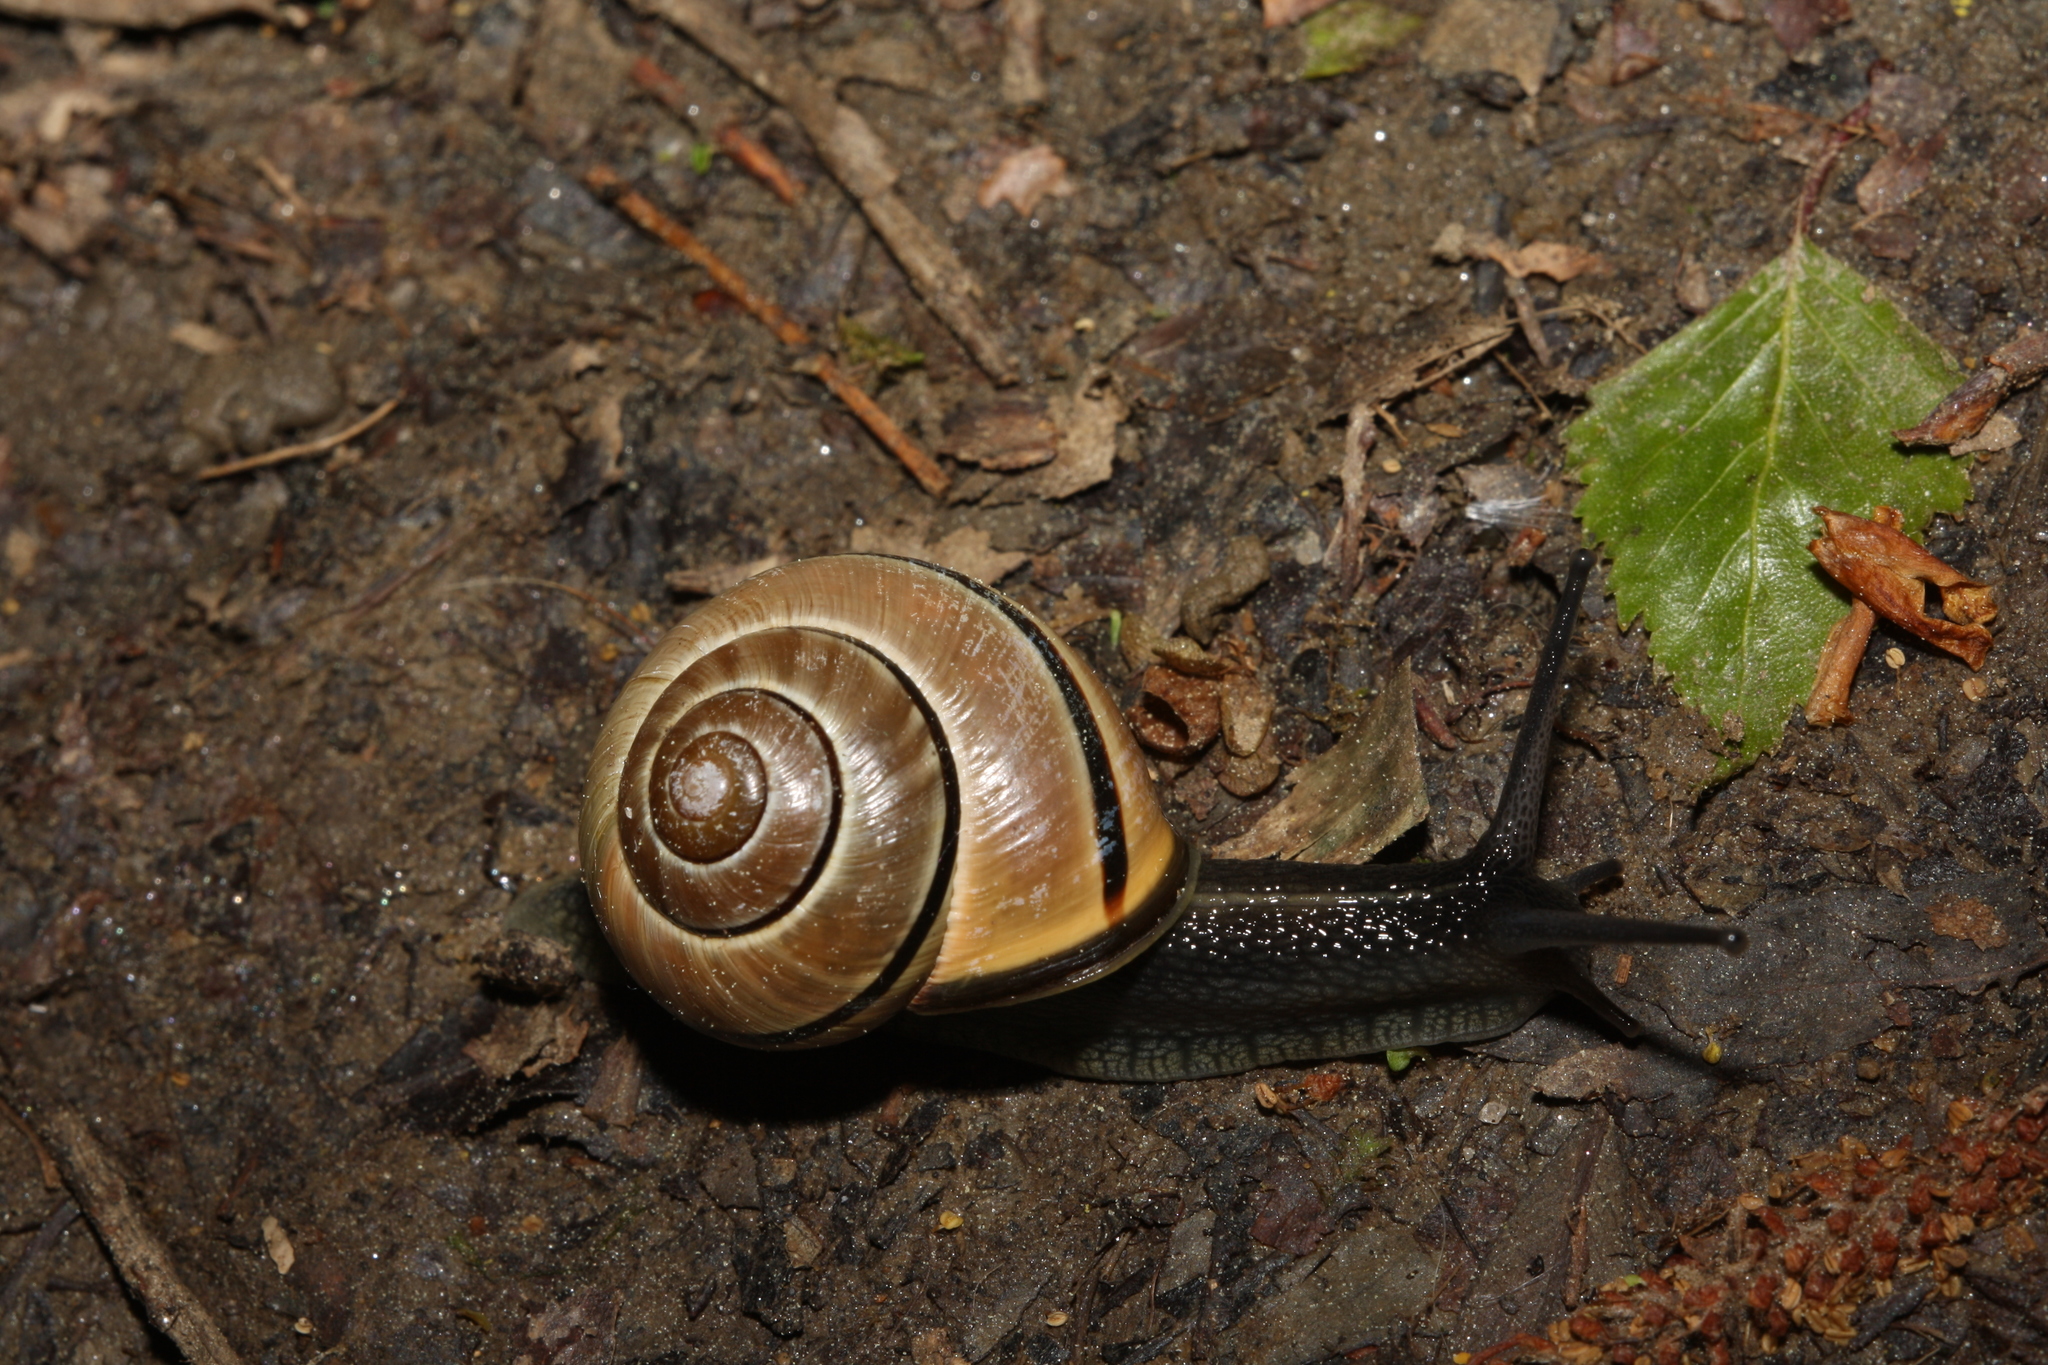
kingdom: Animalia
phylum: Mollusca
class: Gastropoda
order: Stylommatophora
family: Helicidae
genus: Cepaea
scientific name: Cepaea nemoralis
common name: Grovesnail
